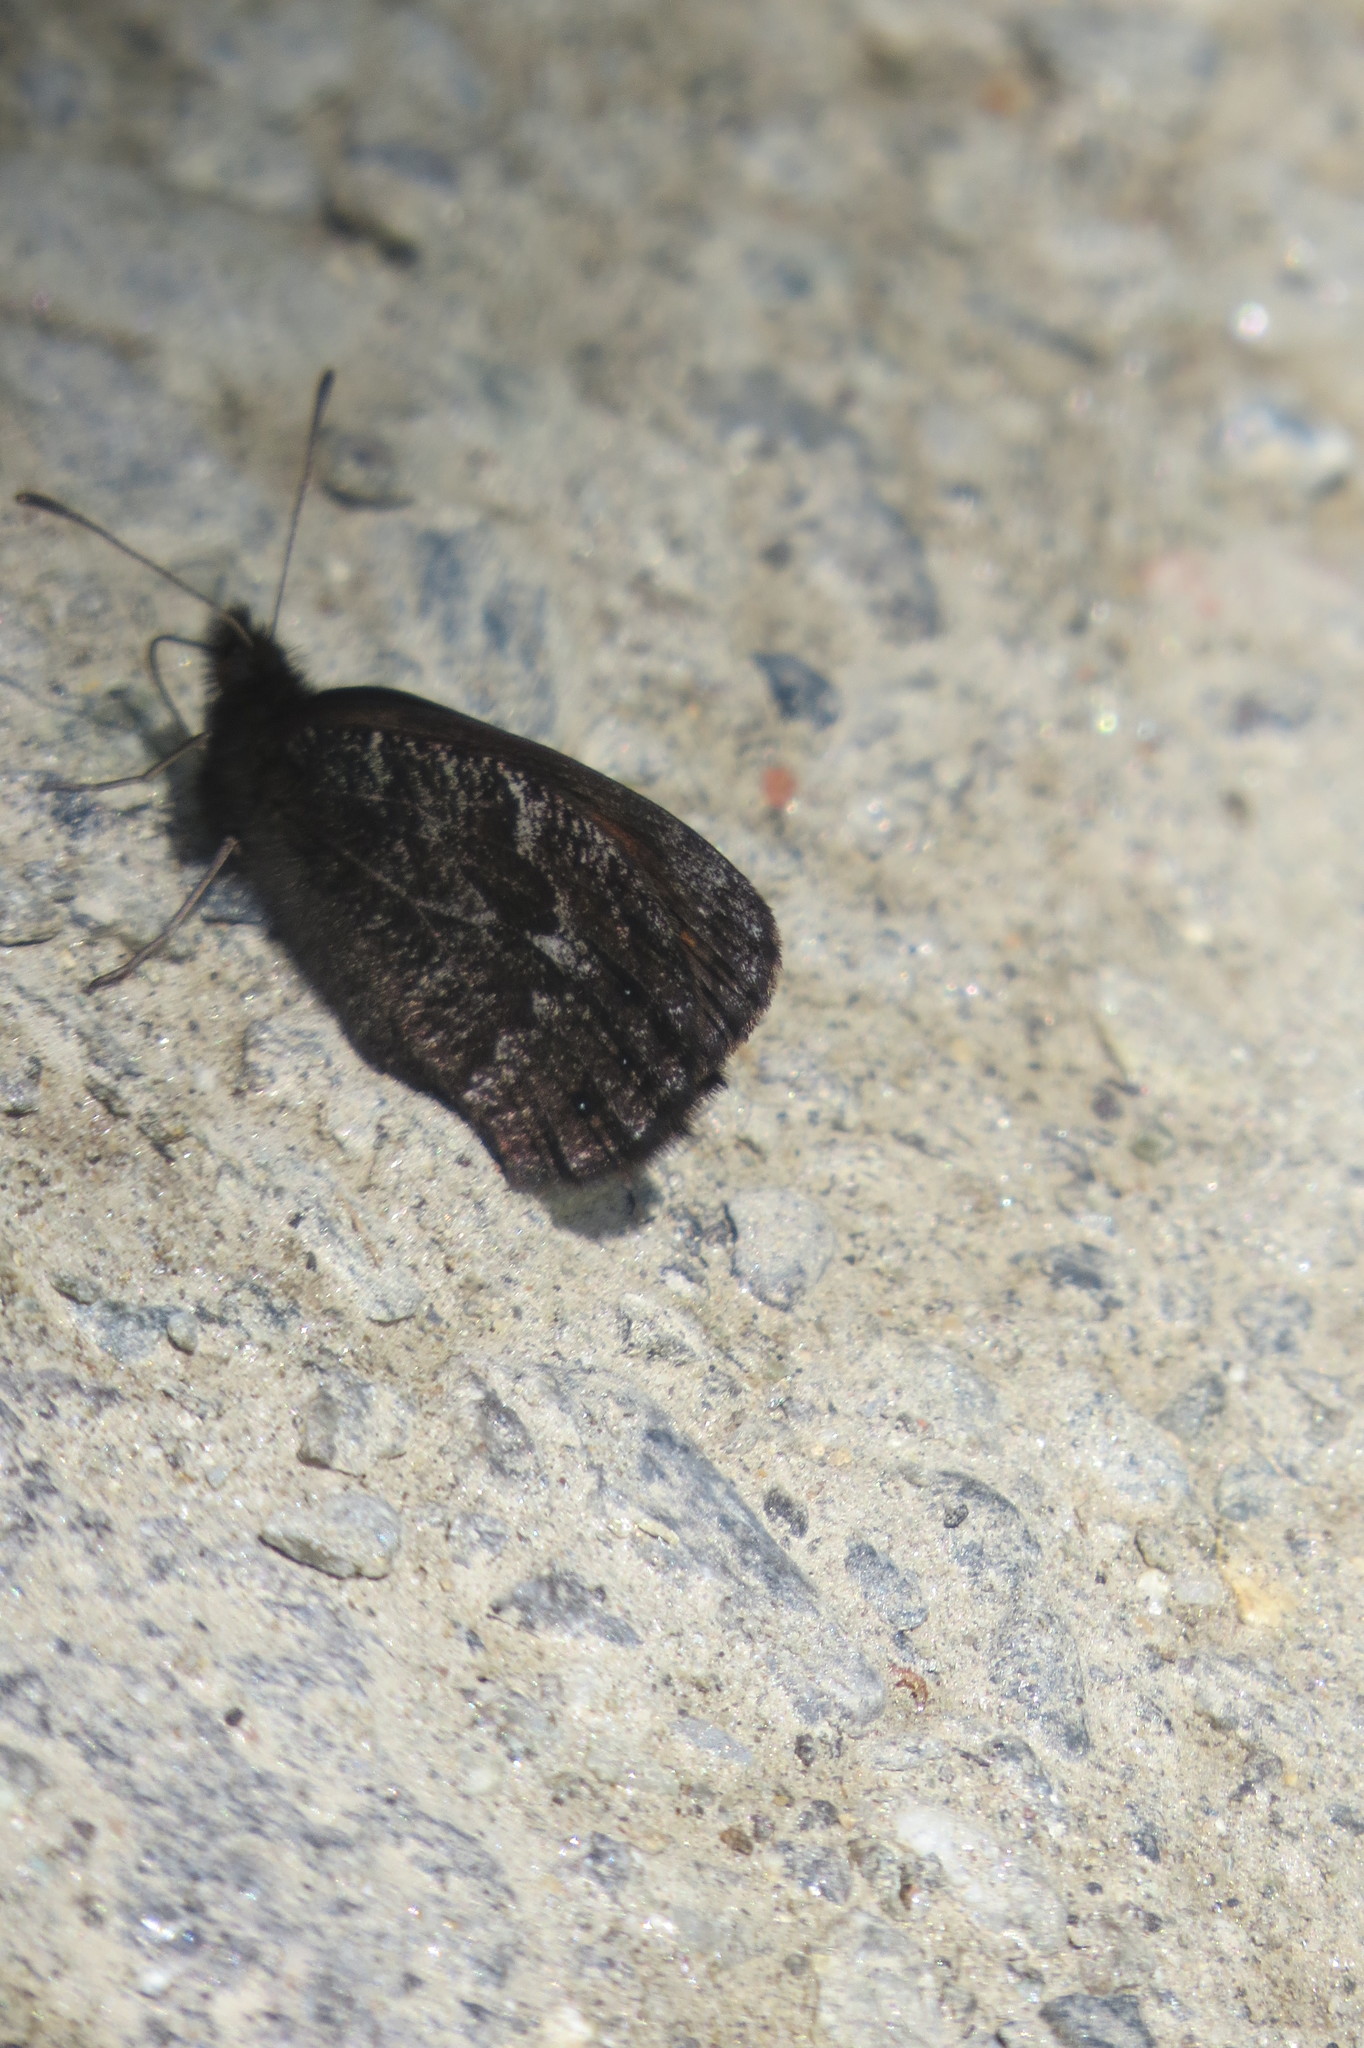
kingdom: Animalia
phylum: Arthropoda
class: Insecta
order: Lepidoptera
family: Nymphalidae
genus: Erebia
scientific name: Erebia montanus
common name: Marbled ringlet
